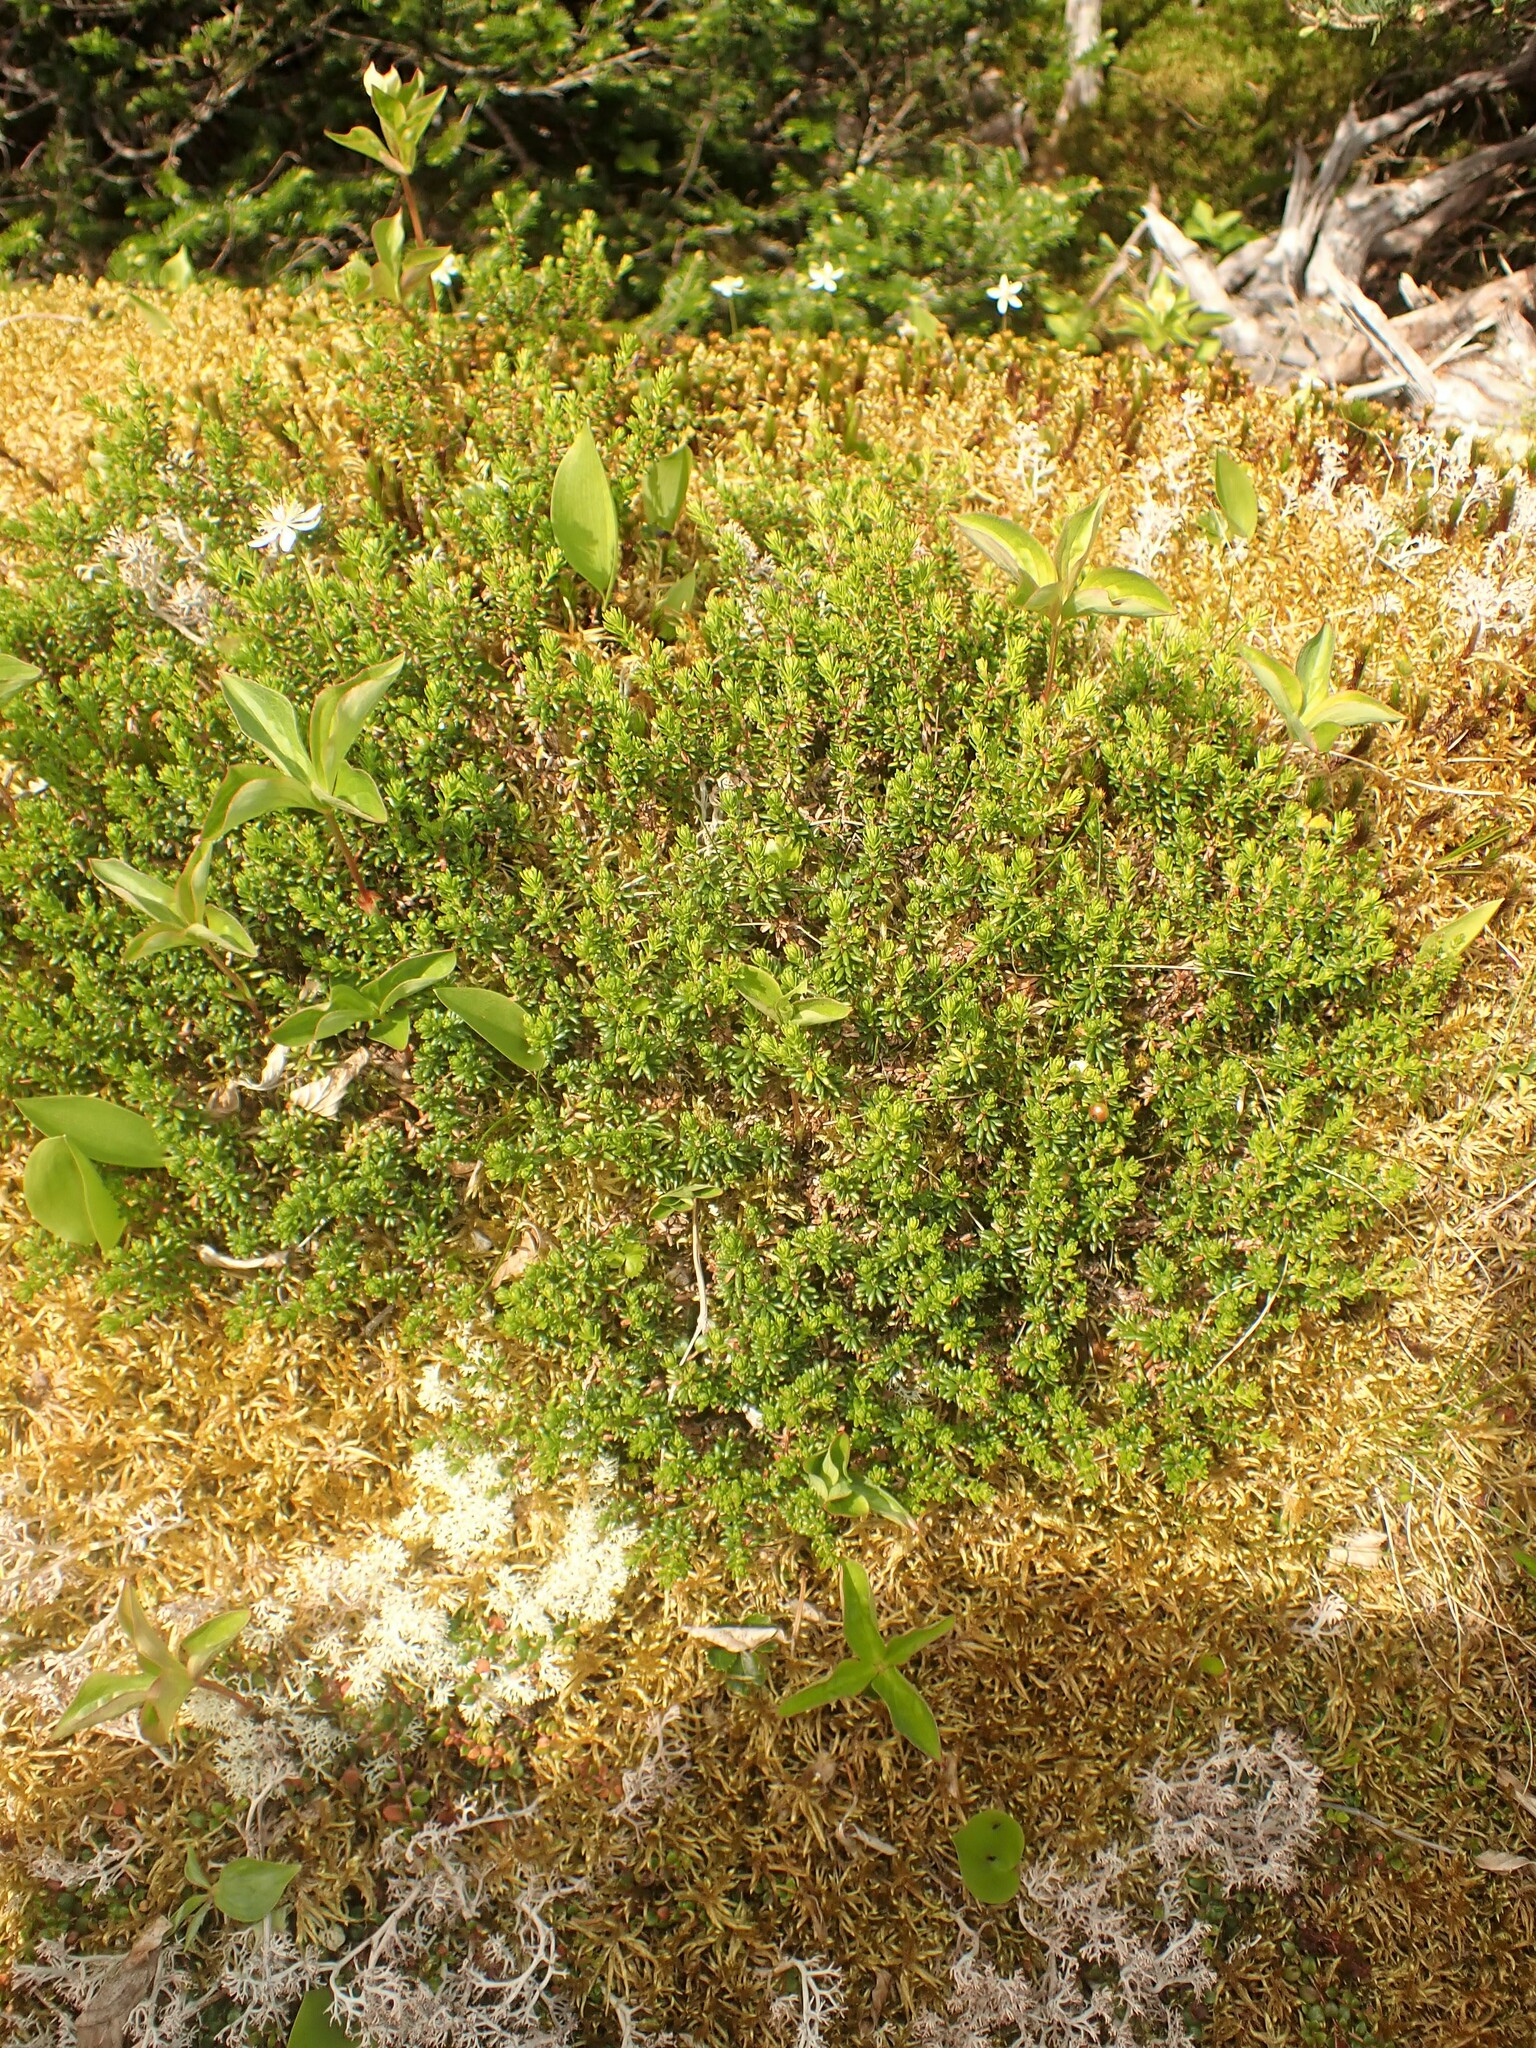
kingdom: Plantae
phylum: Tracheophyta
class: Magnoliopsida
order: Ericales
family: Ericaceae
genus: Empetrum
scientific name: Empetrum nigrum
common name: Black crowberry
